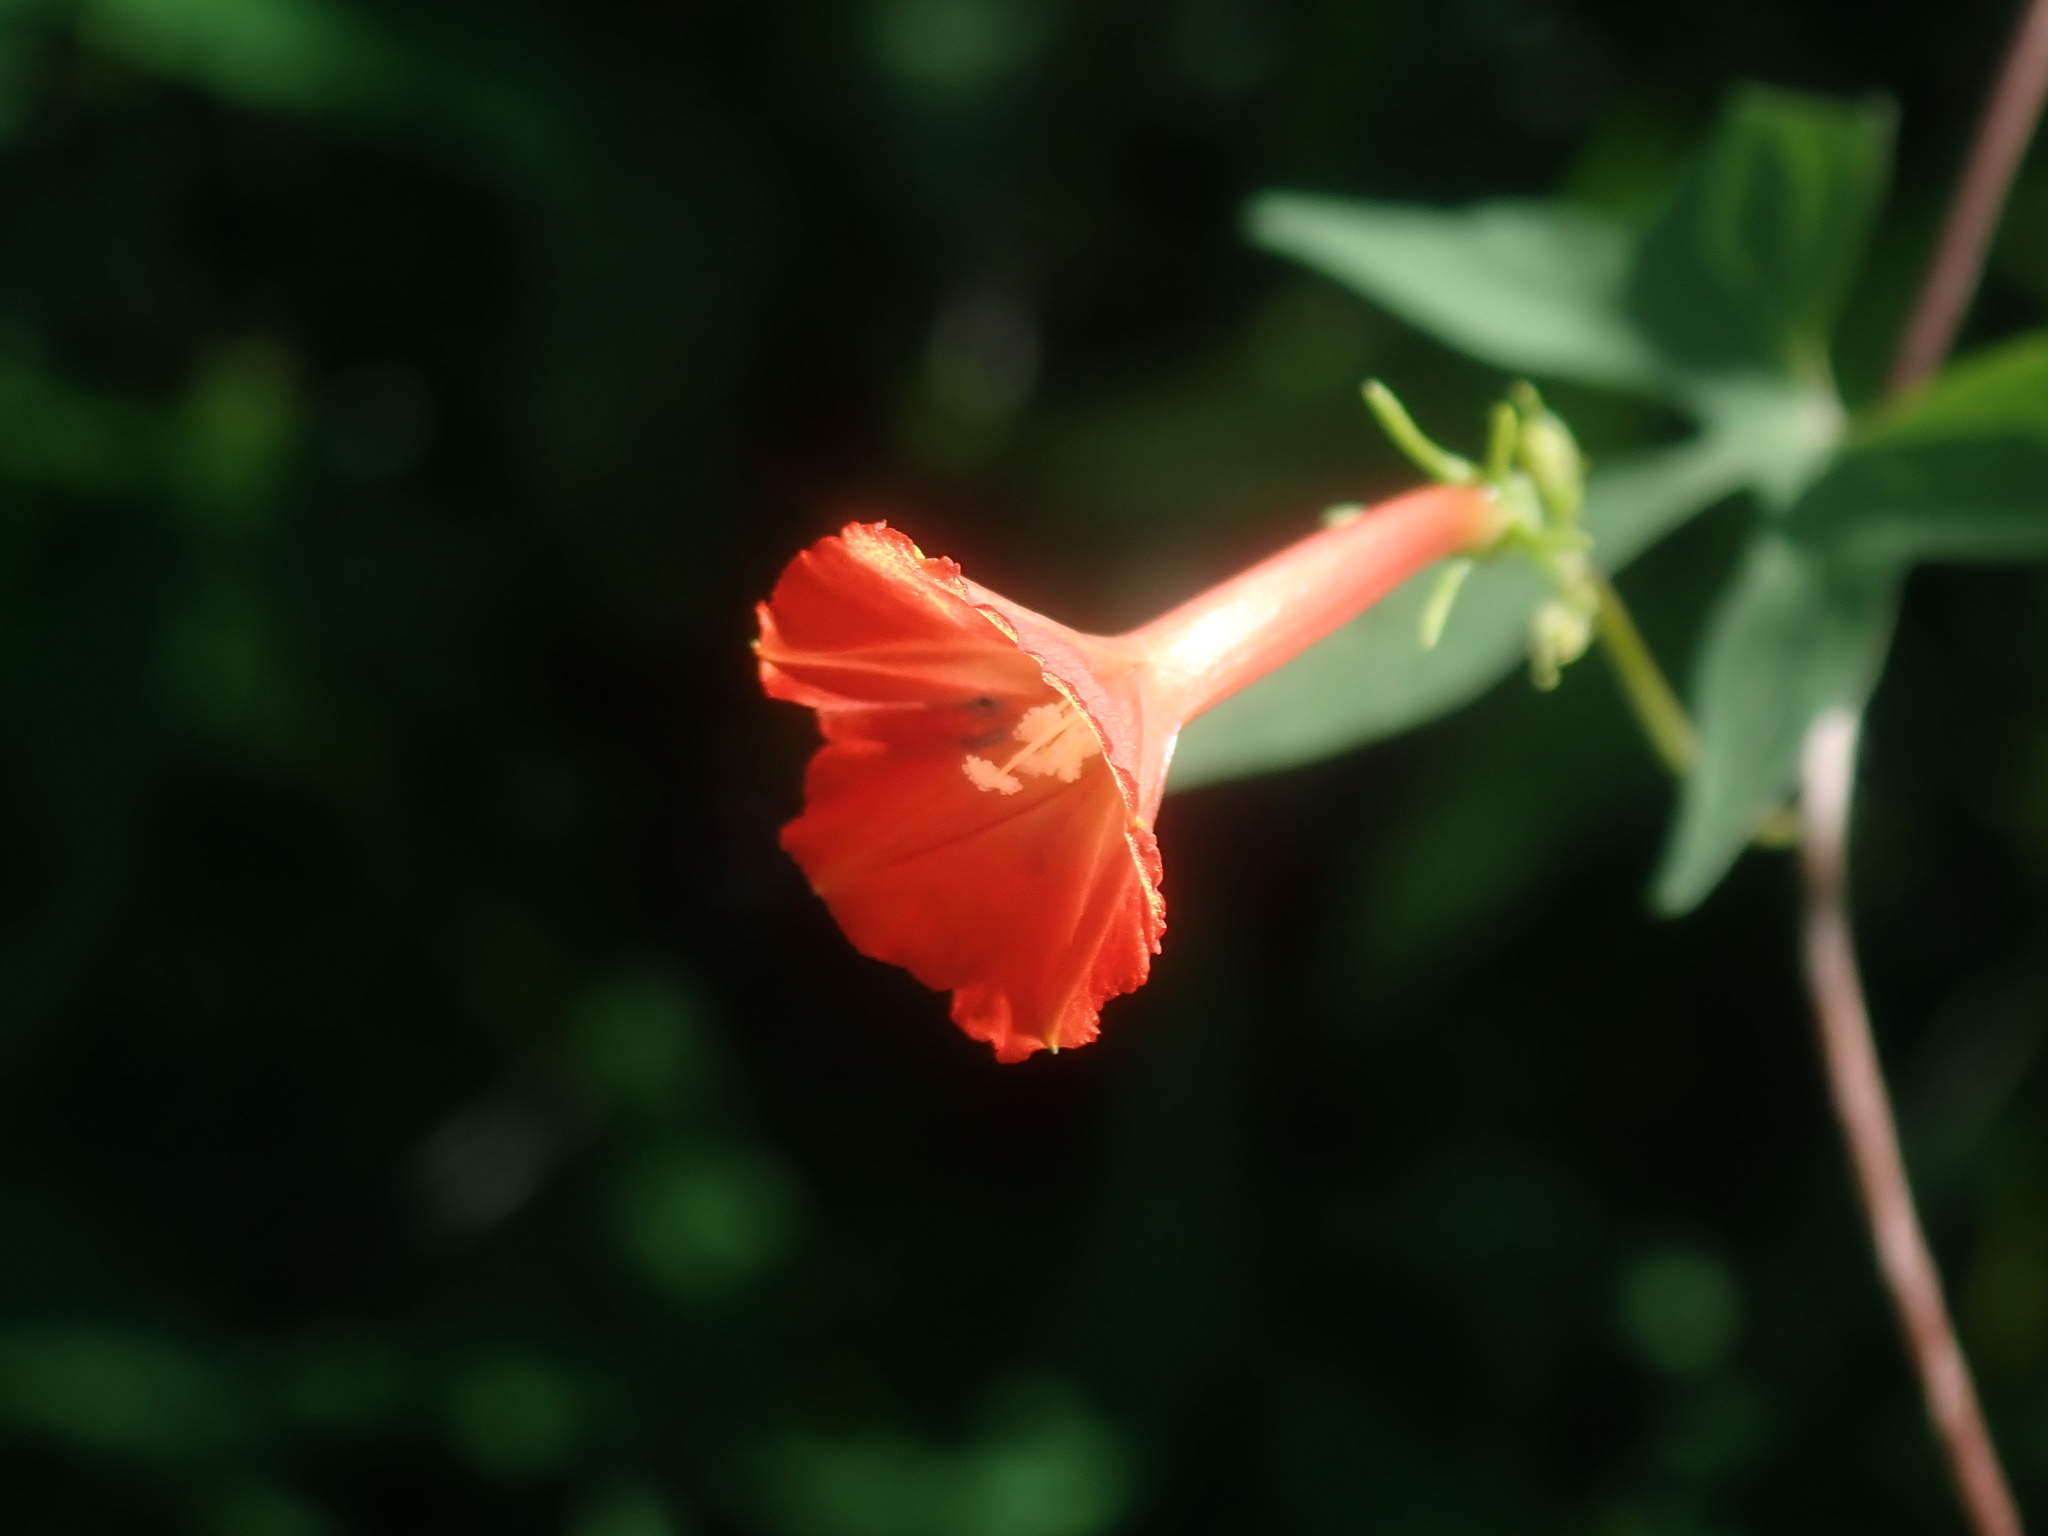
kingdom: Plantae
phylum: Tracheophyta
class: Magnoliopsida
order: Solanales
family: Convolvulaceae
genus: Ipomoea
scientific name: Ipomoea cristulata
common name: Trans-pecos morning-glory
